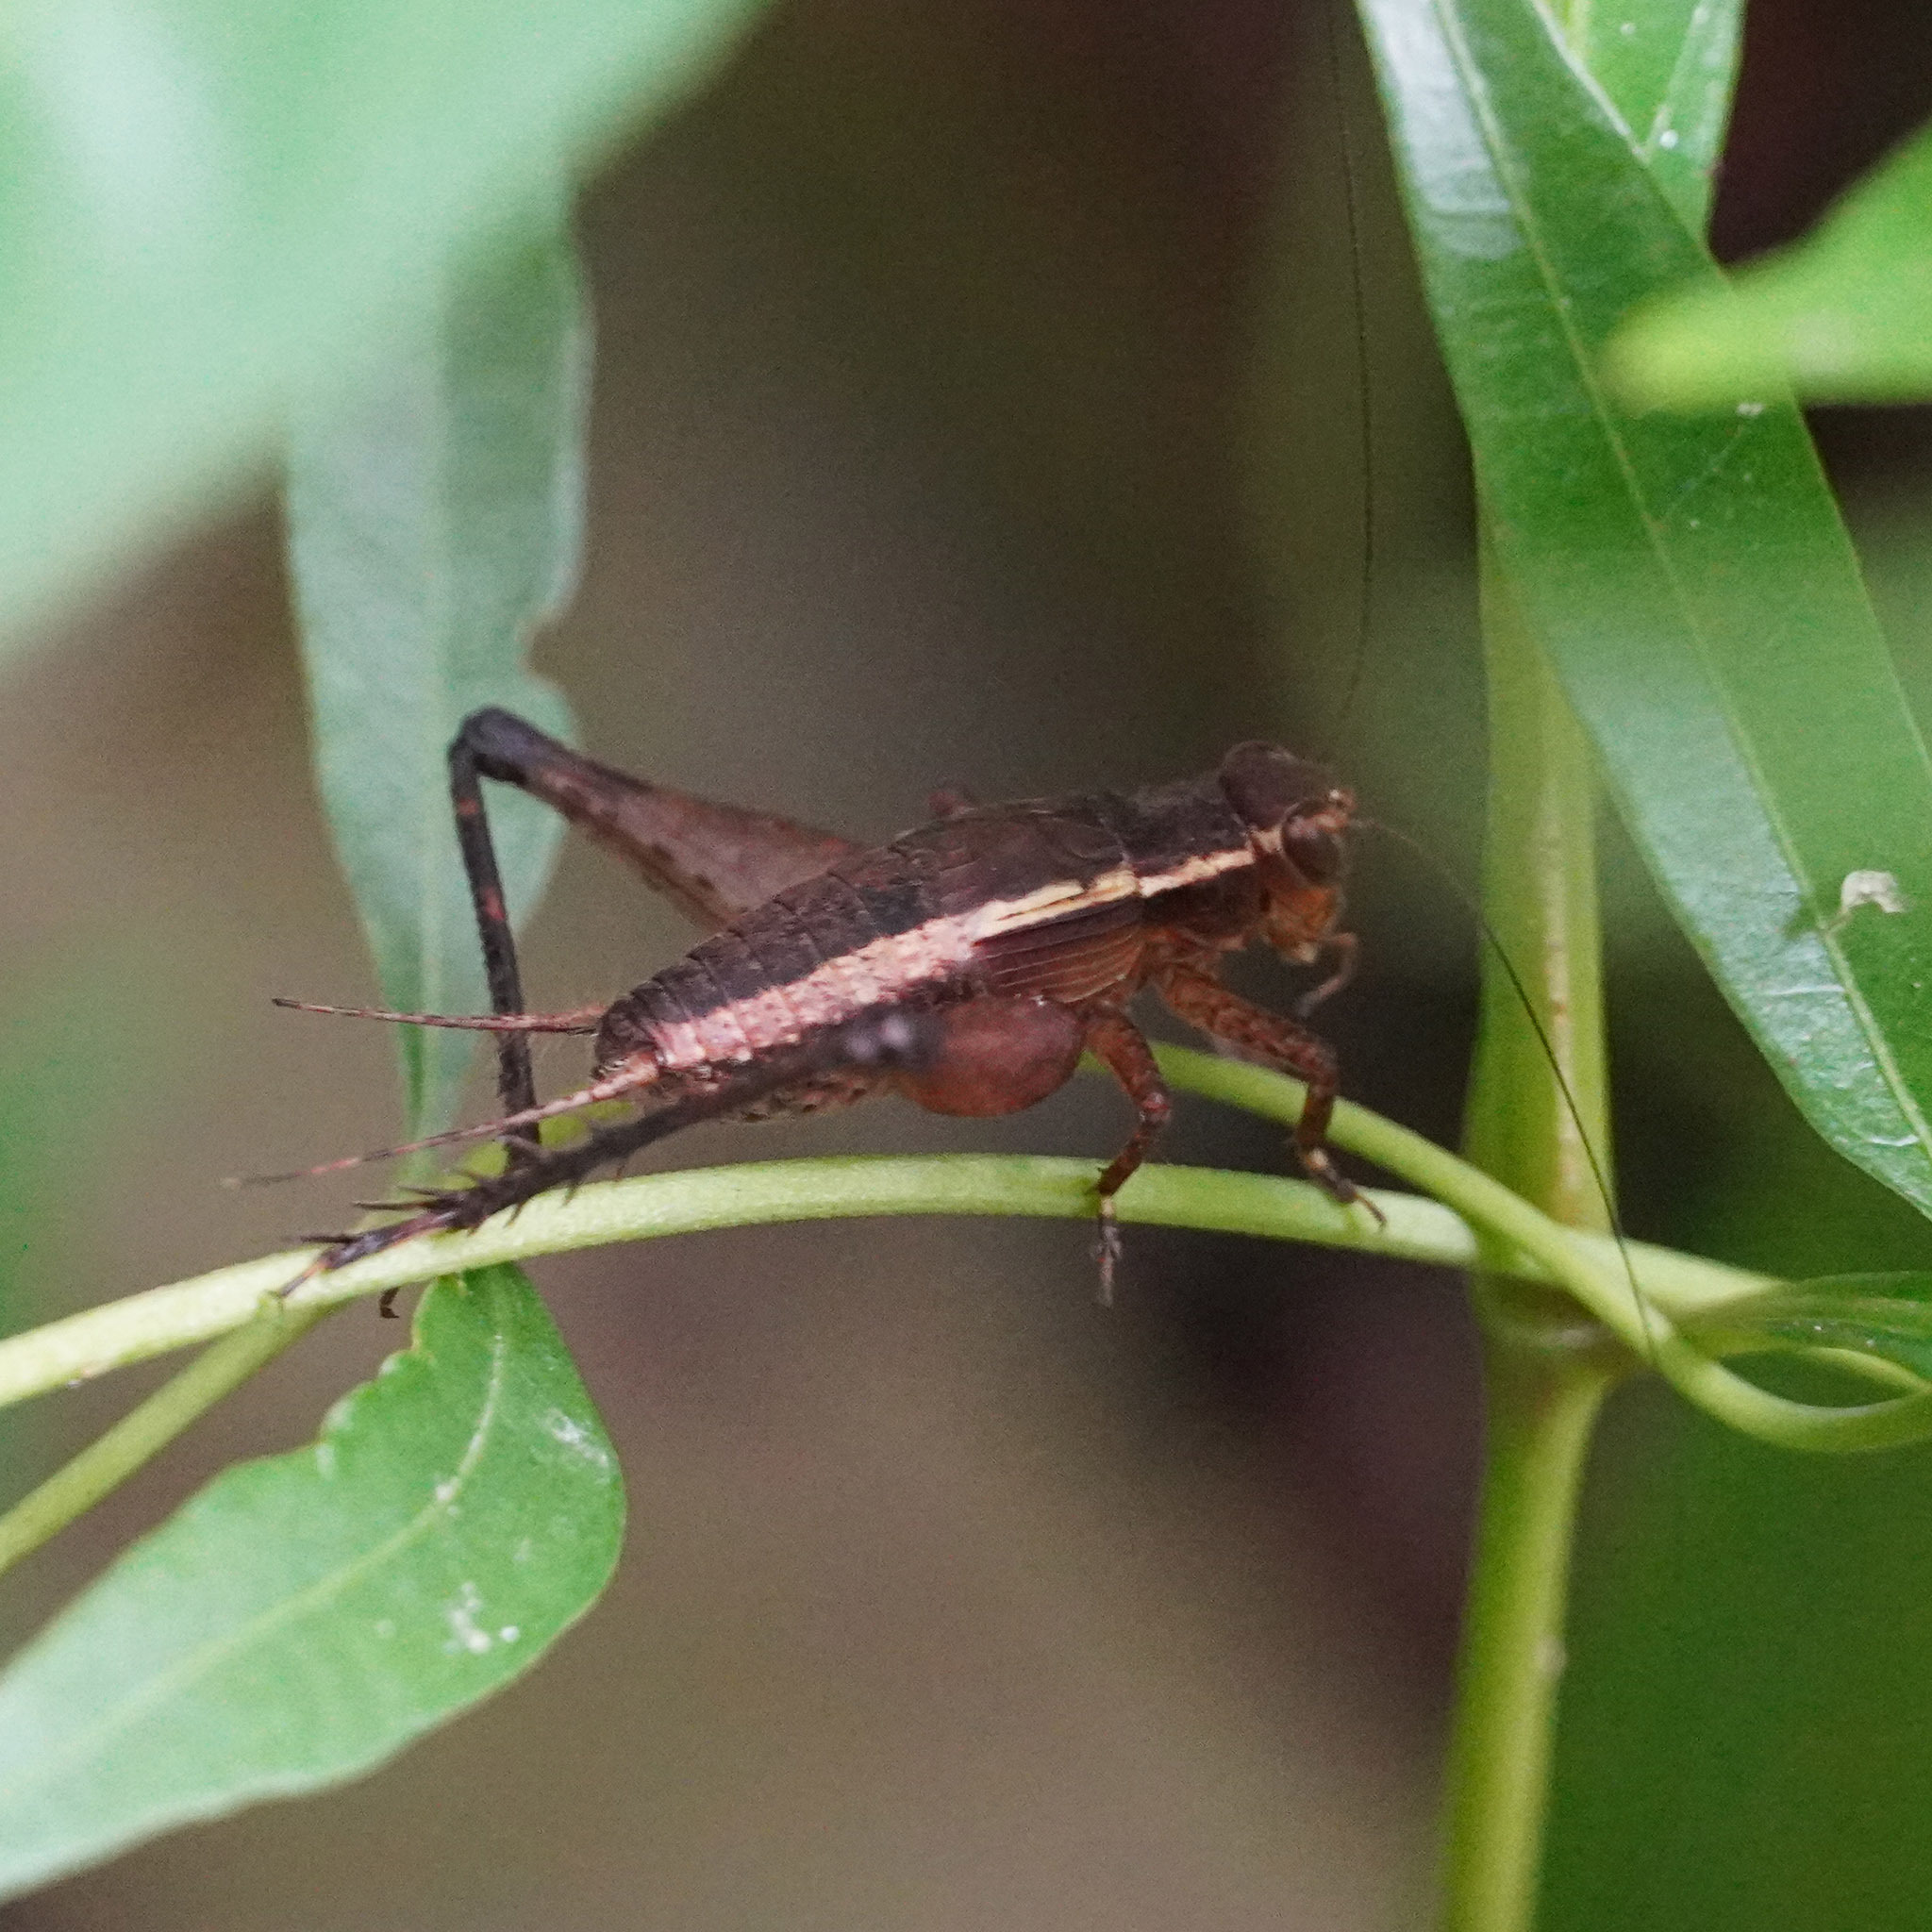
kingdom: Animalia
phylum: Arthropoda
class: Insecta
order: Orthoptera
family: Gryllidae
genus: Lebinthus
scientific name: Lebinthus luae
